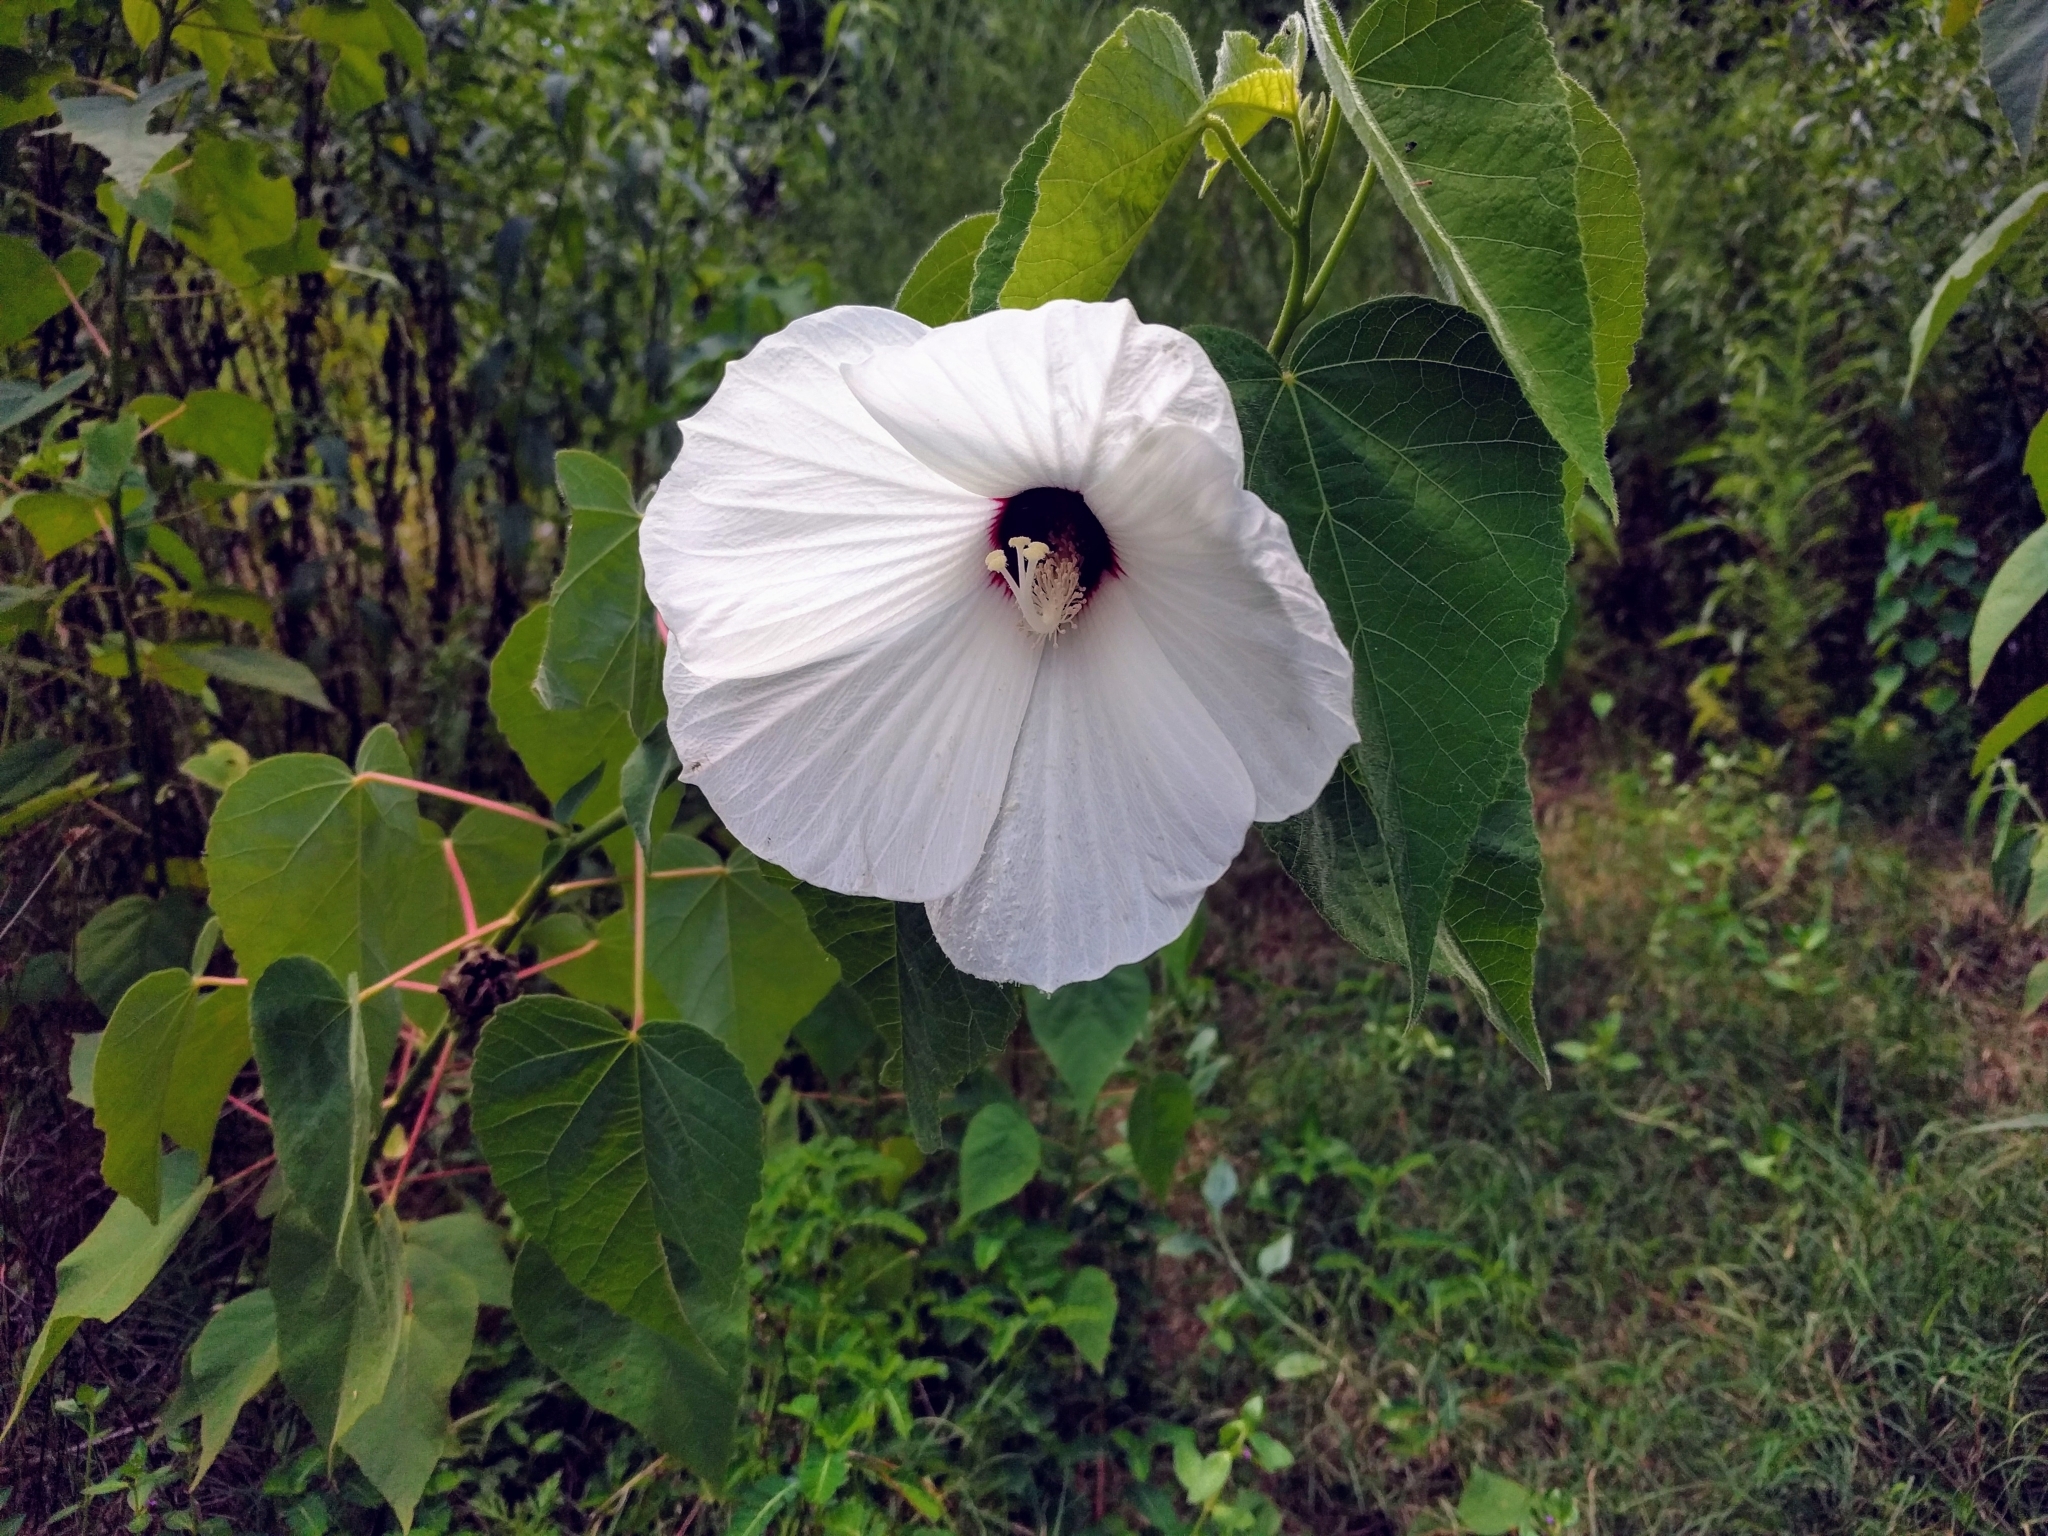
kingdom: Plantae
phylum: Tracheophyta
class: Magnoliopsida
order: Malvales
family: Malvaceae
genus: Hibiscus
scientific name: Hibiscus moscheutos
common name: Common rose-mallow
